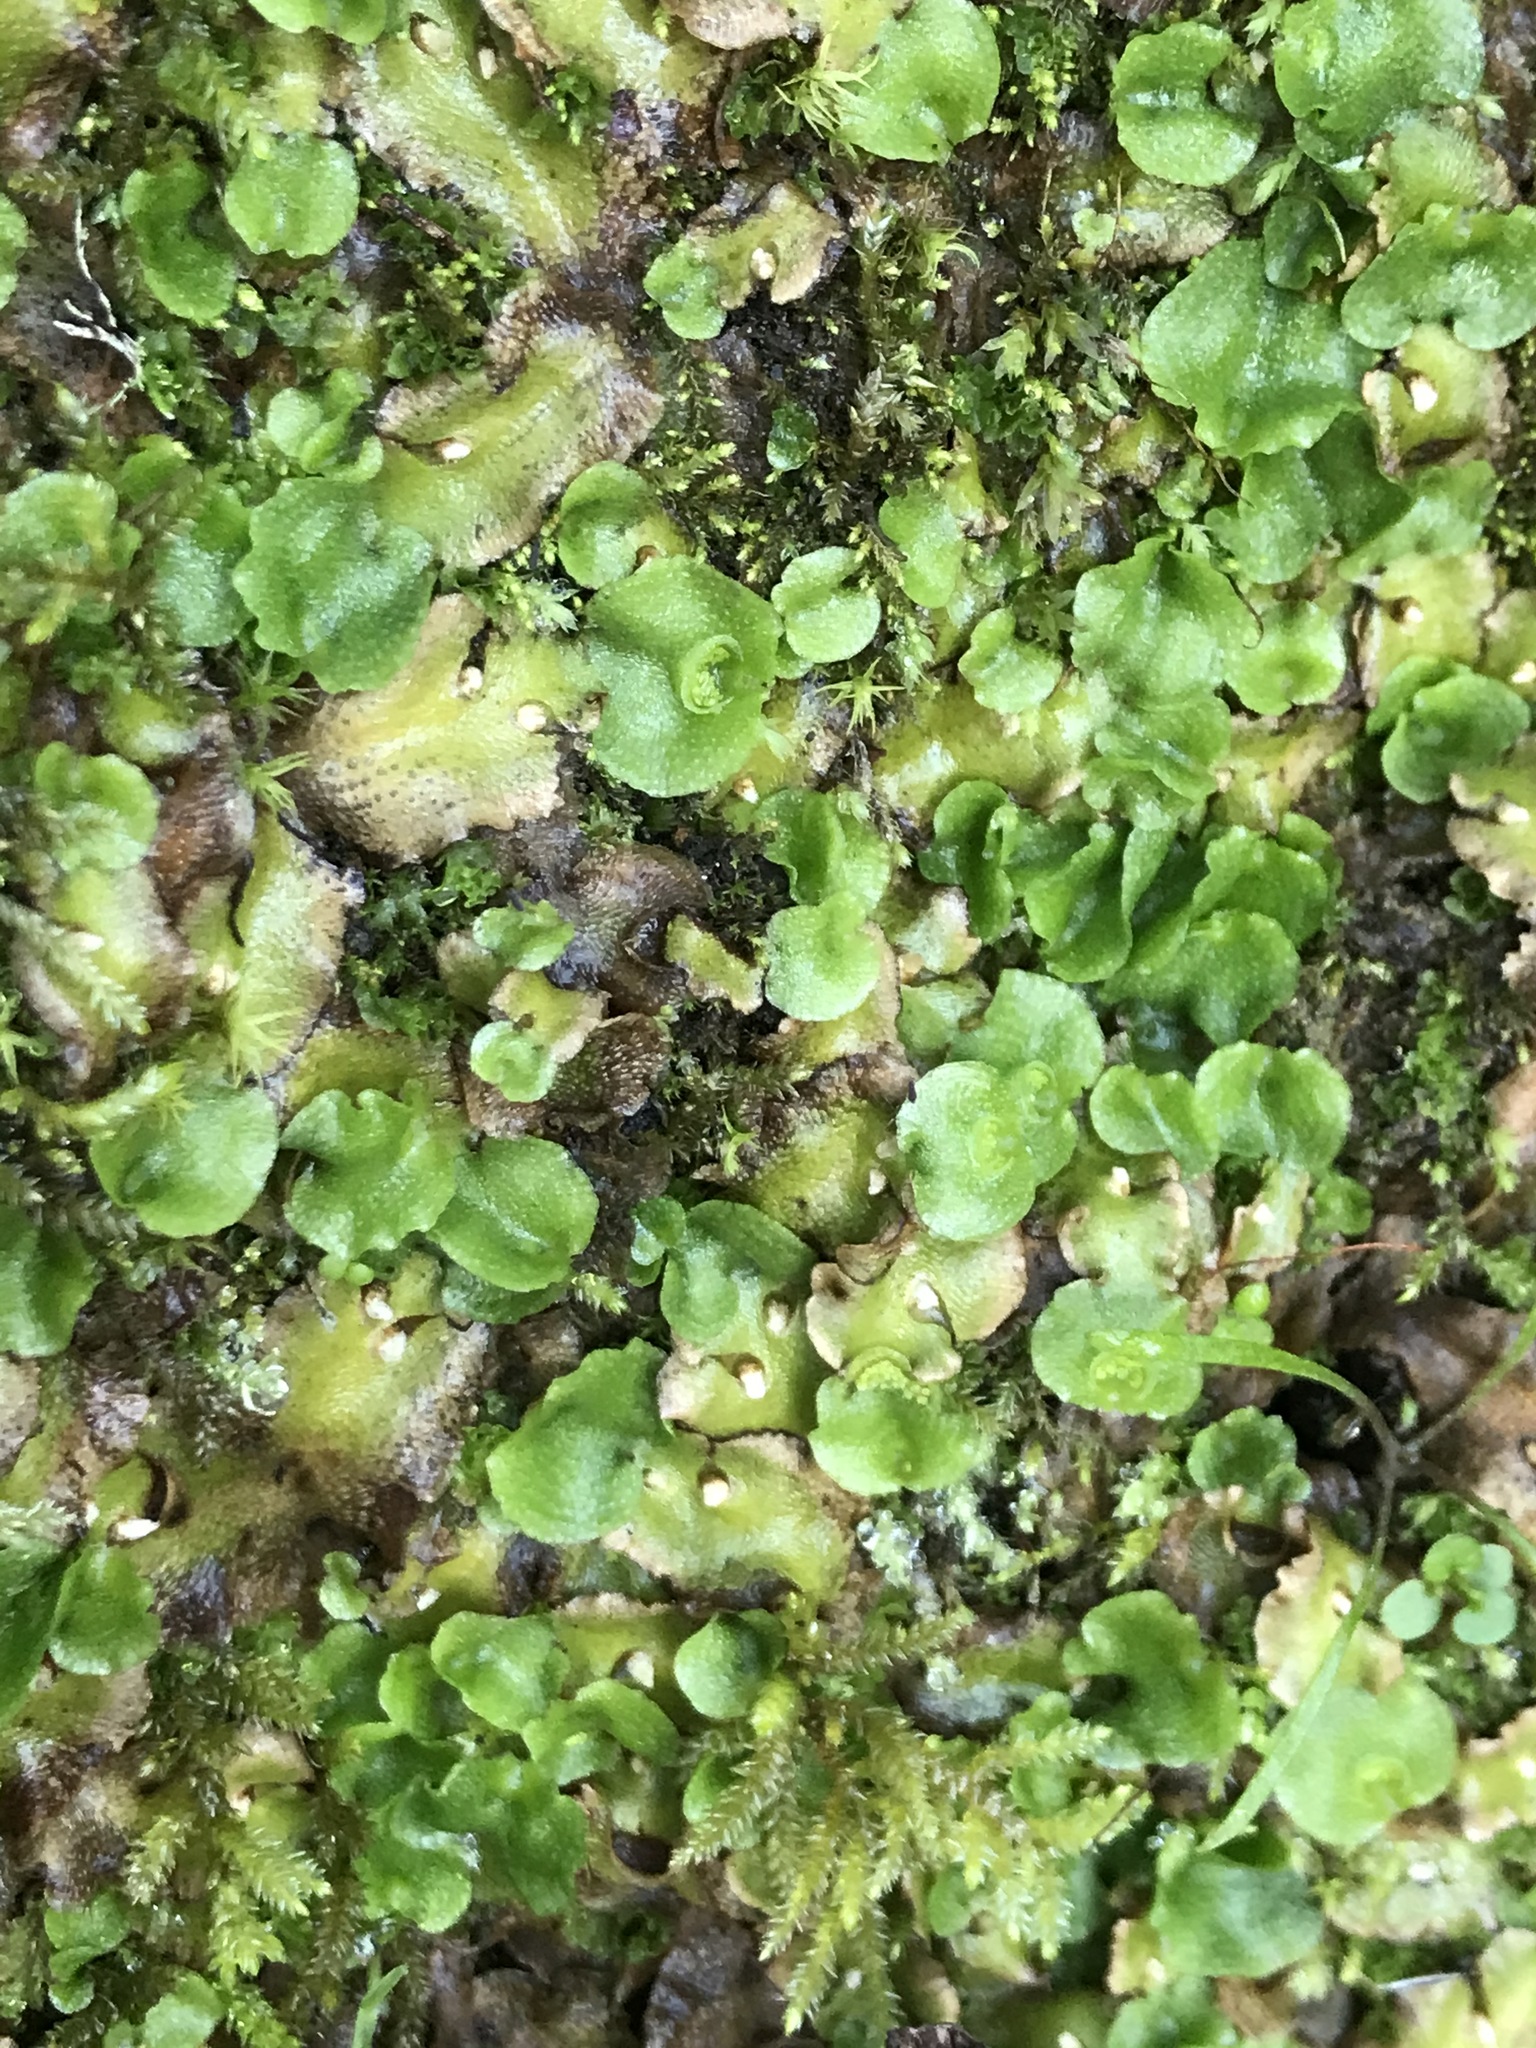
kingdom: Plantae
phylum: Marchantiophyta
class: Marchantiopsida
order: Lunulariales
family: Lunulariaceae
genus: Lunularia
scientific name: Lunularia cruciata
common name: Crescent-cup liverwort
